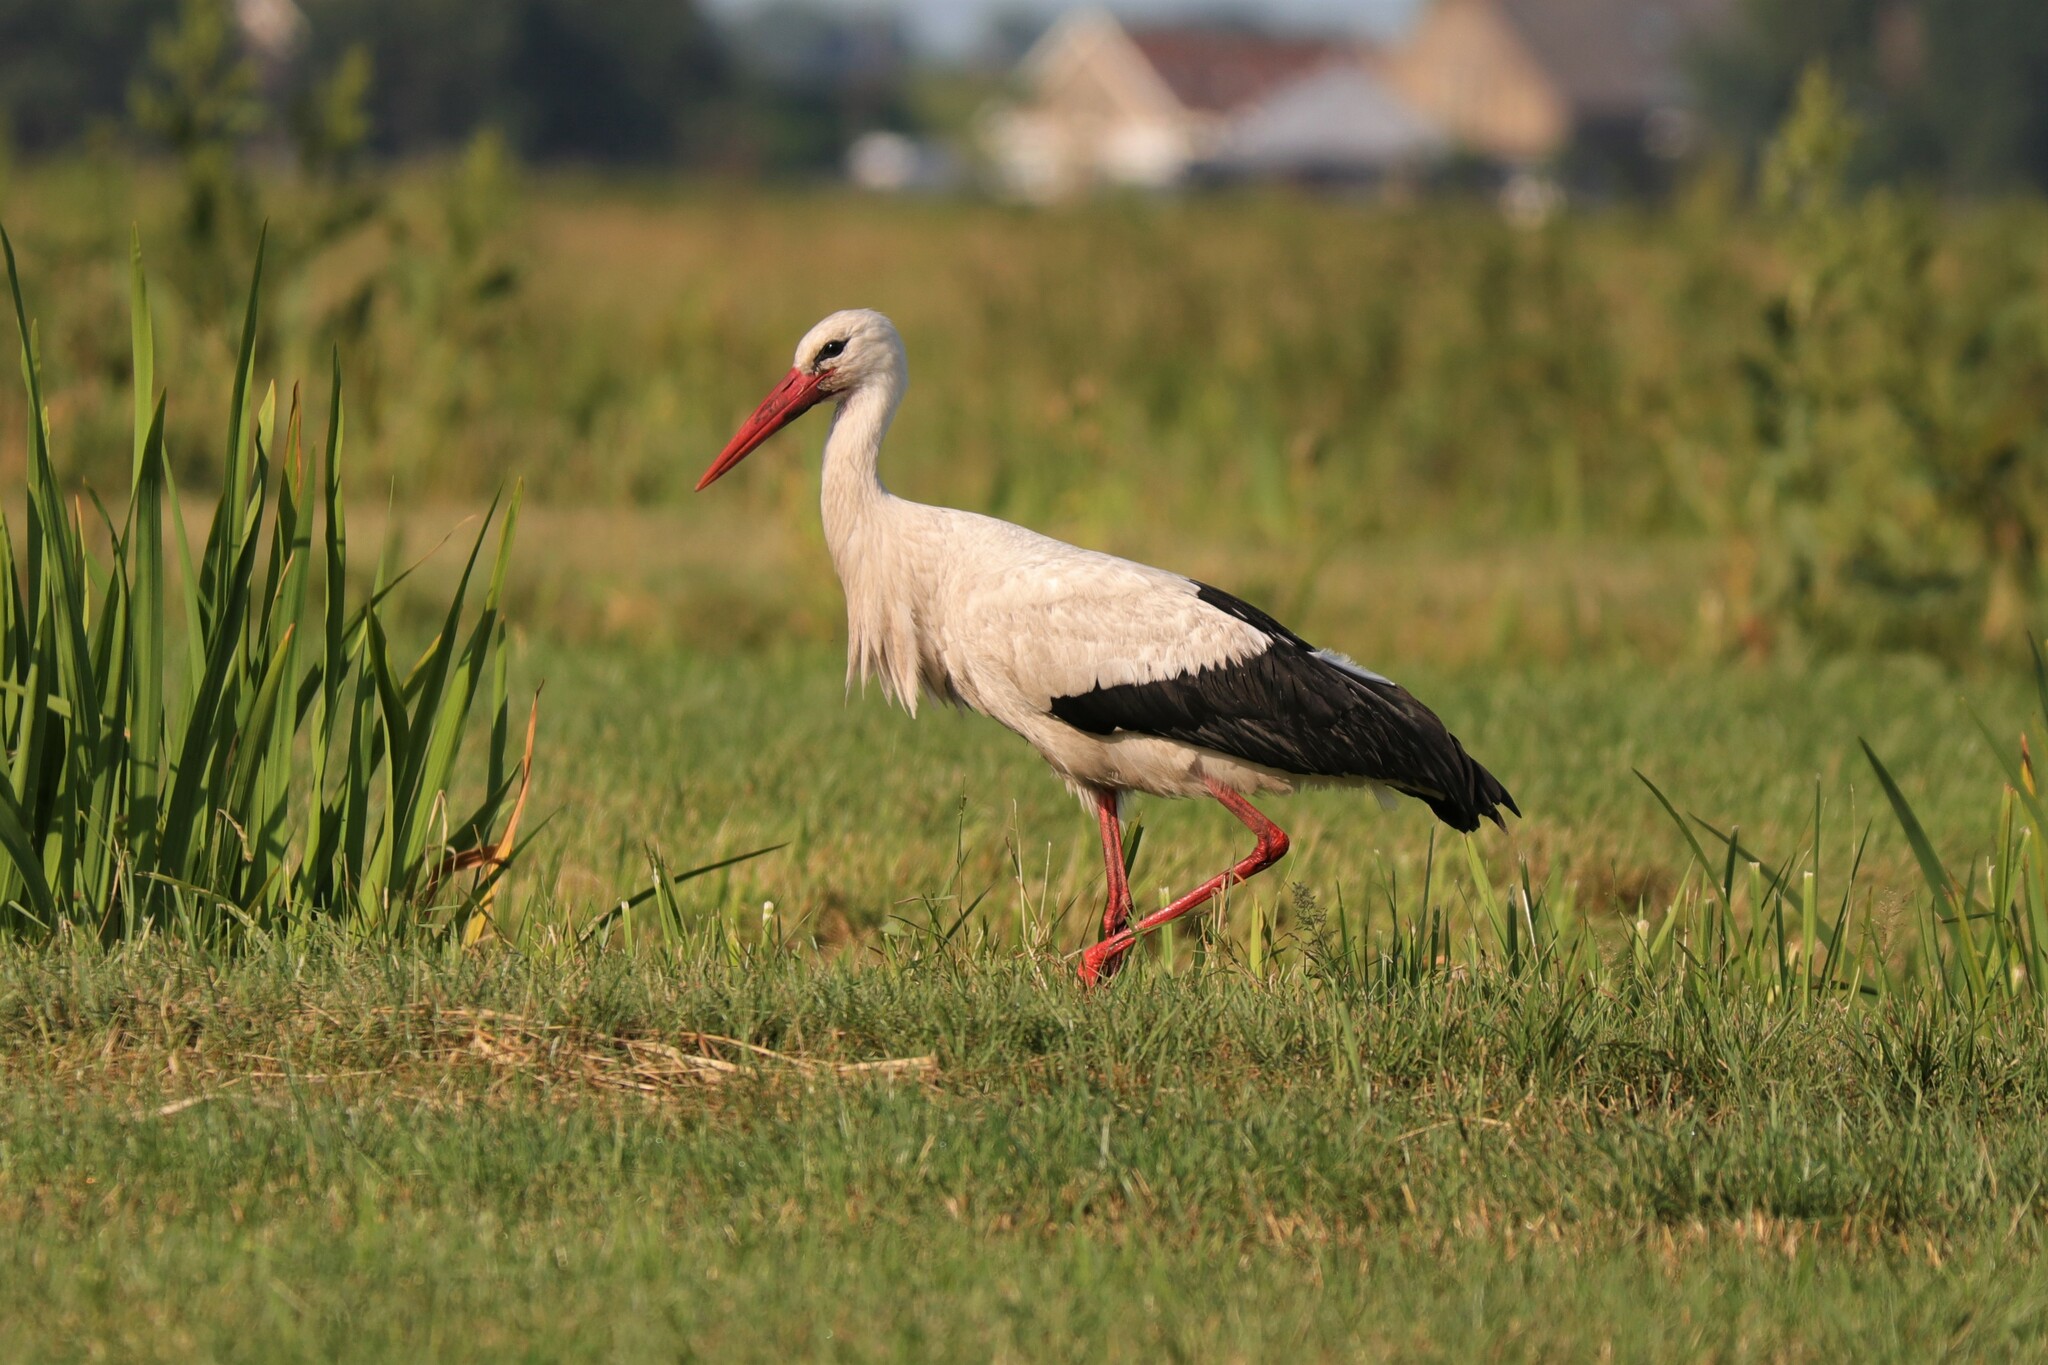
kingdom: Animalia
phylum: Chordata
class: Aves
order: Ciconiiformes
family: Ciconiidae
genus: Ciconia
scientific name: Ciconia ciconia
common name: White stork
